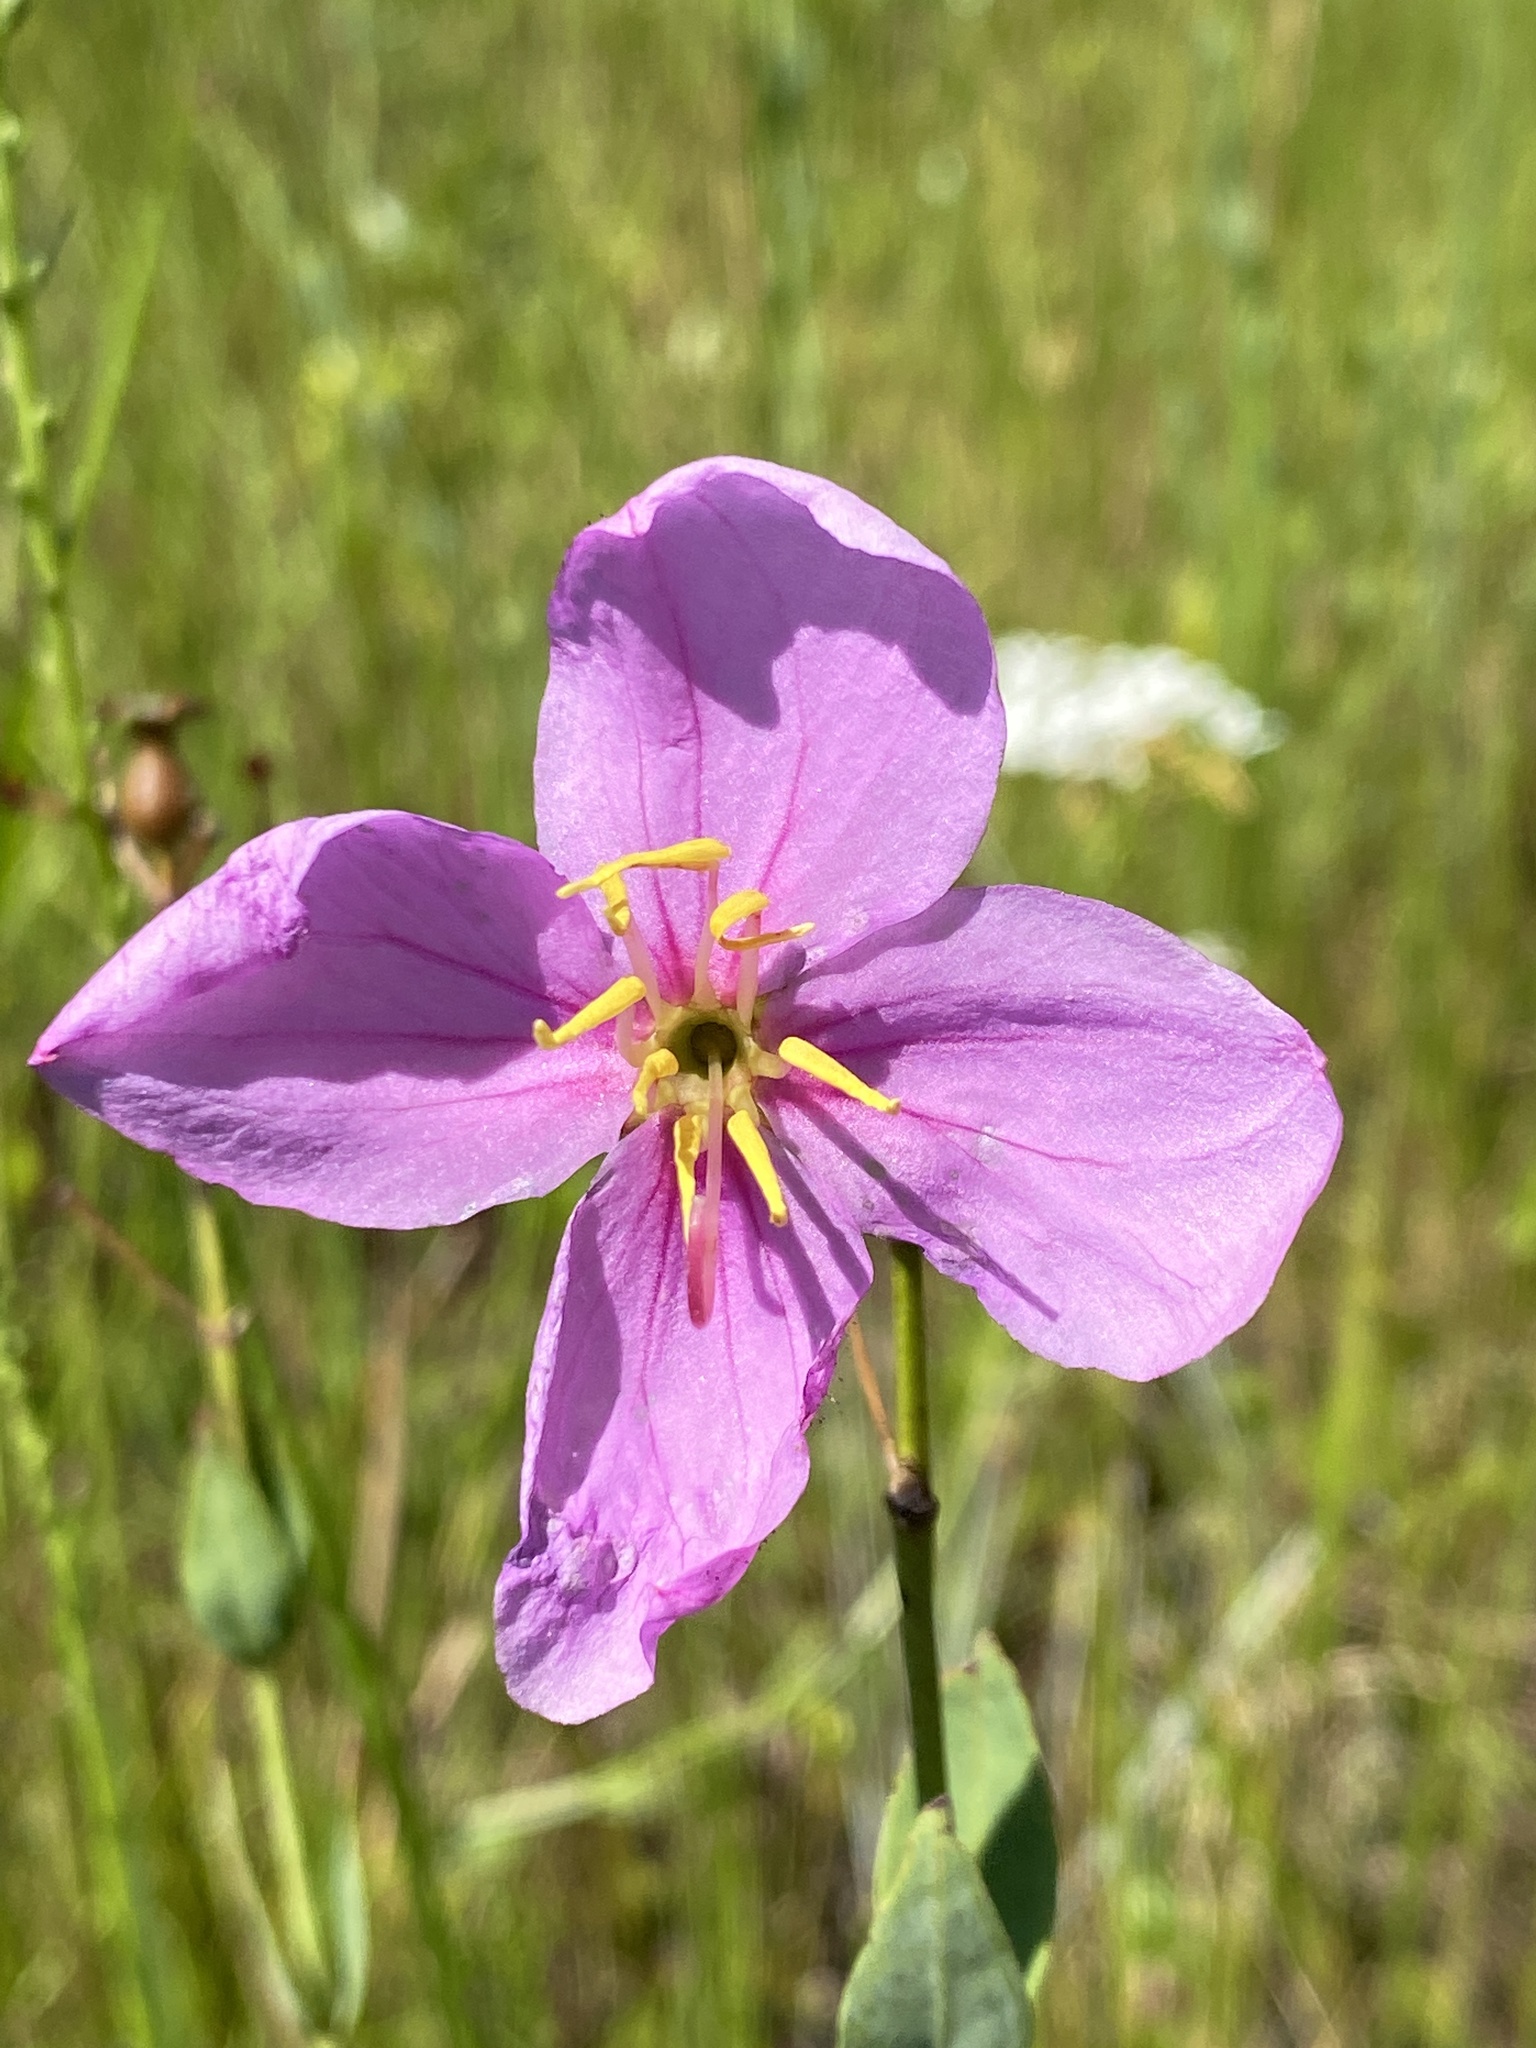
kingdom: Plantae
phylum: Tracheophyta
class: Magnoliopsida
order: Myrtales
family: Melastomataceae
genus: Rhexia
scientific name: Rhexia alifanus
